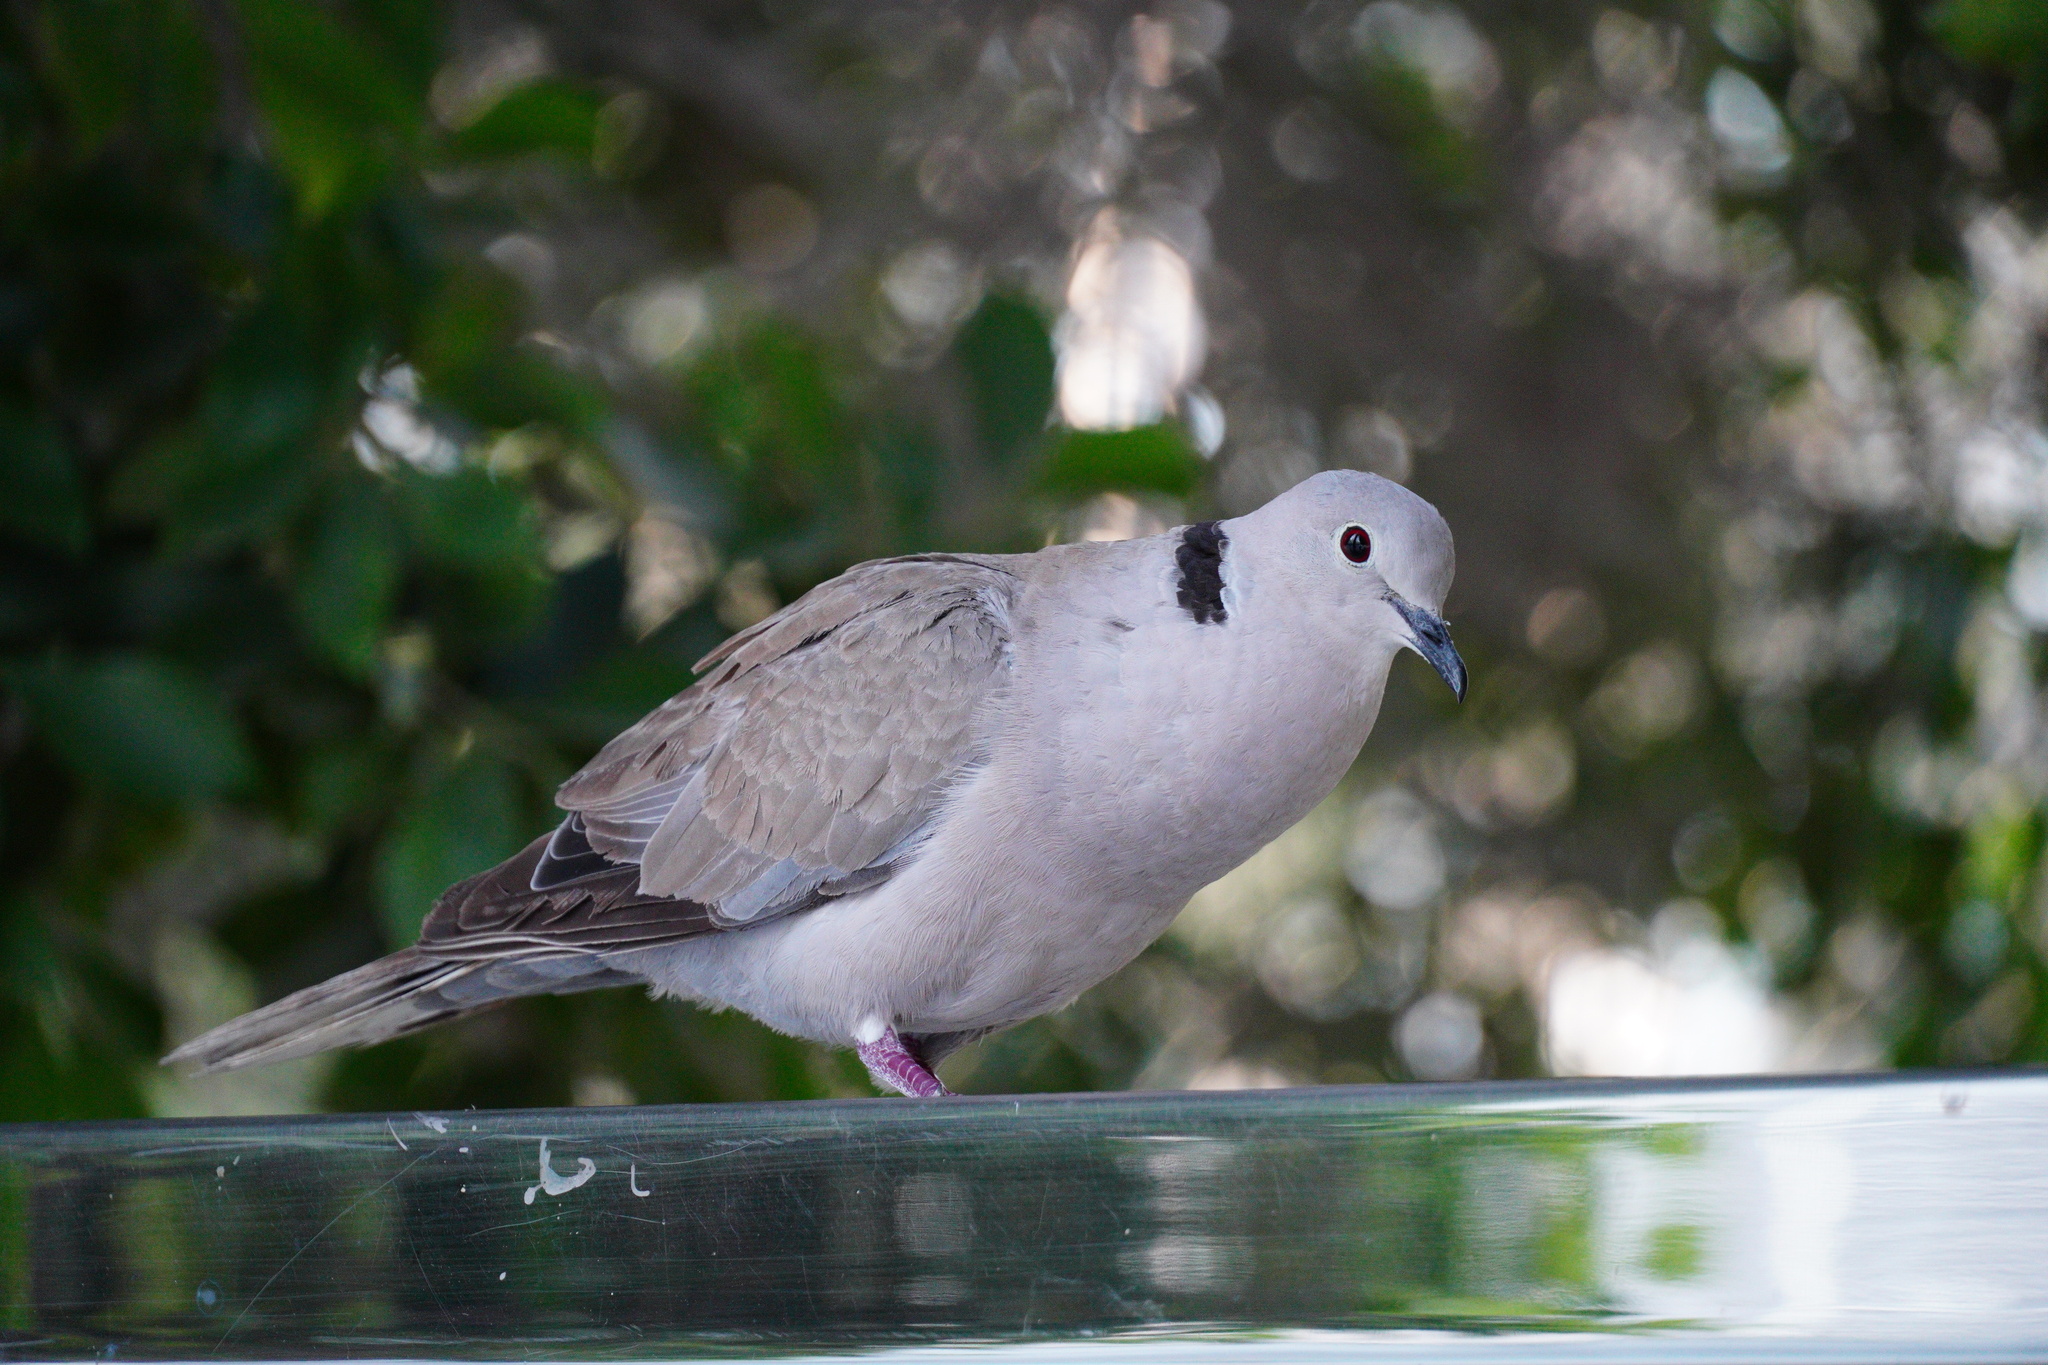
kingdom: Animalia
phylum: Chordata
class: Aves
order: Columbiformes
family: Columbidae
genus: Streptopelia
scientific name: Streptopelia decaocto
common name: Eurasian collared dove
